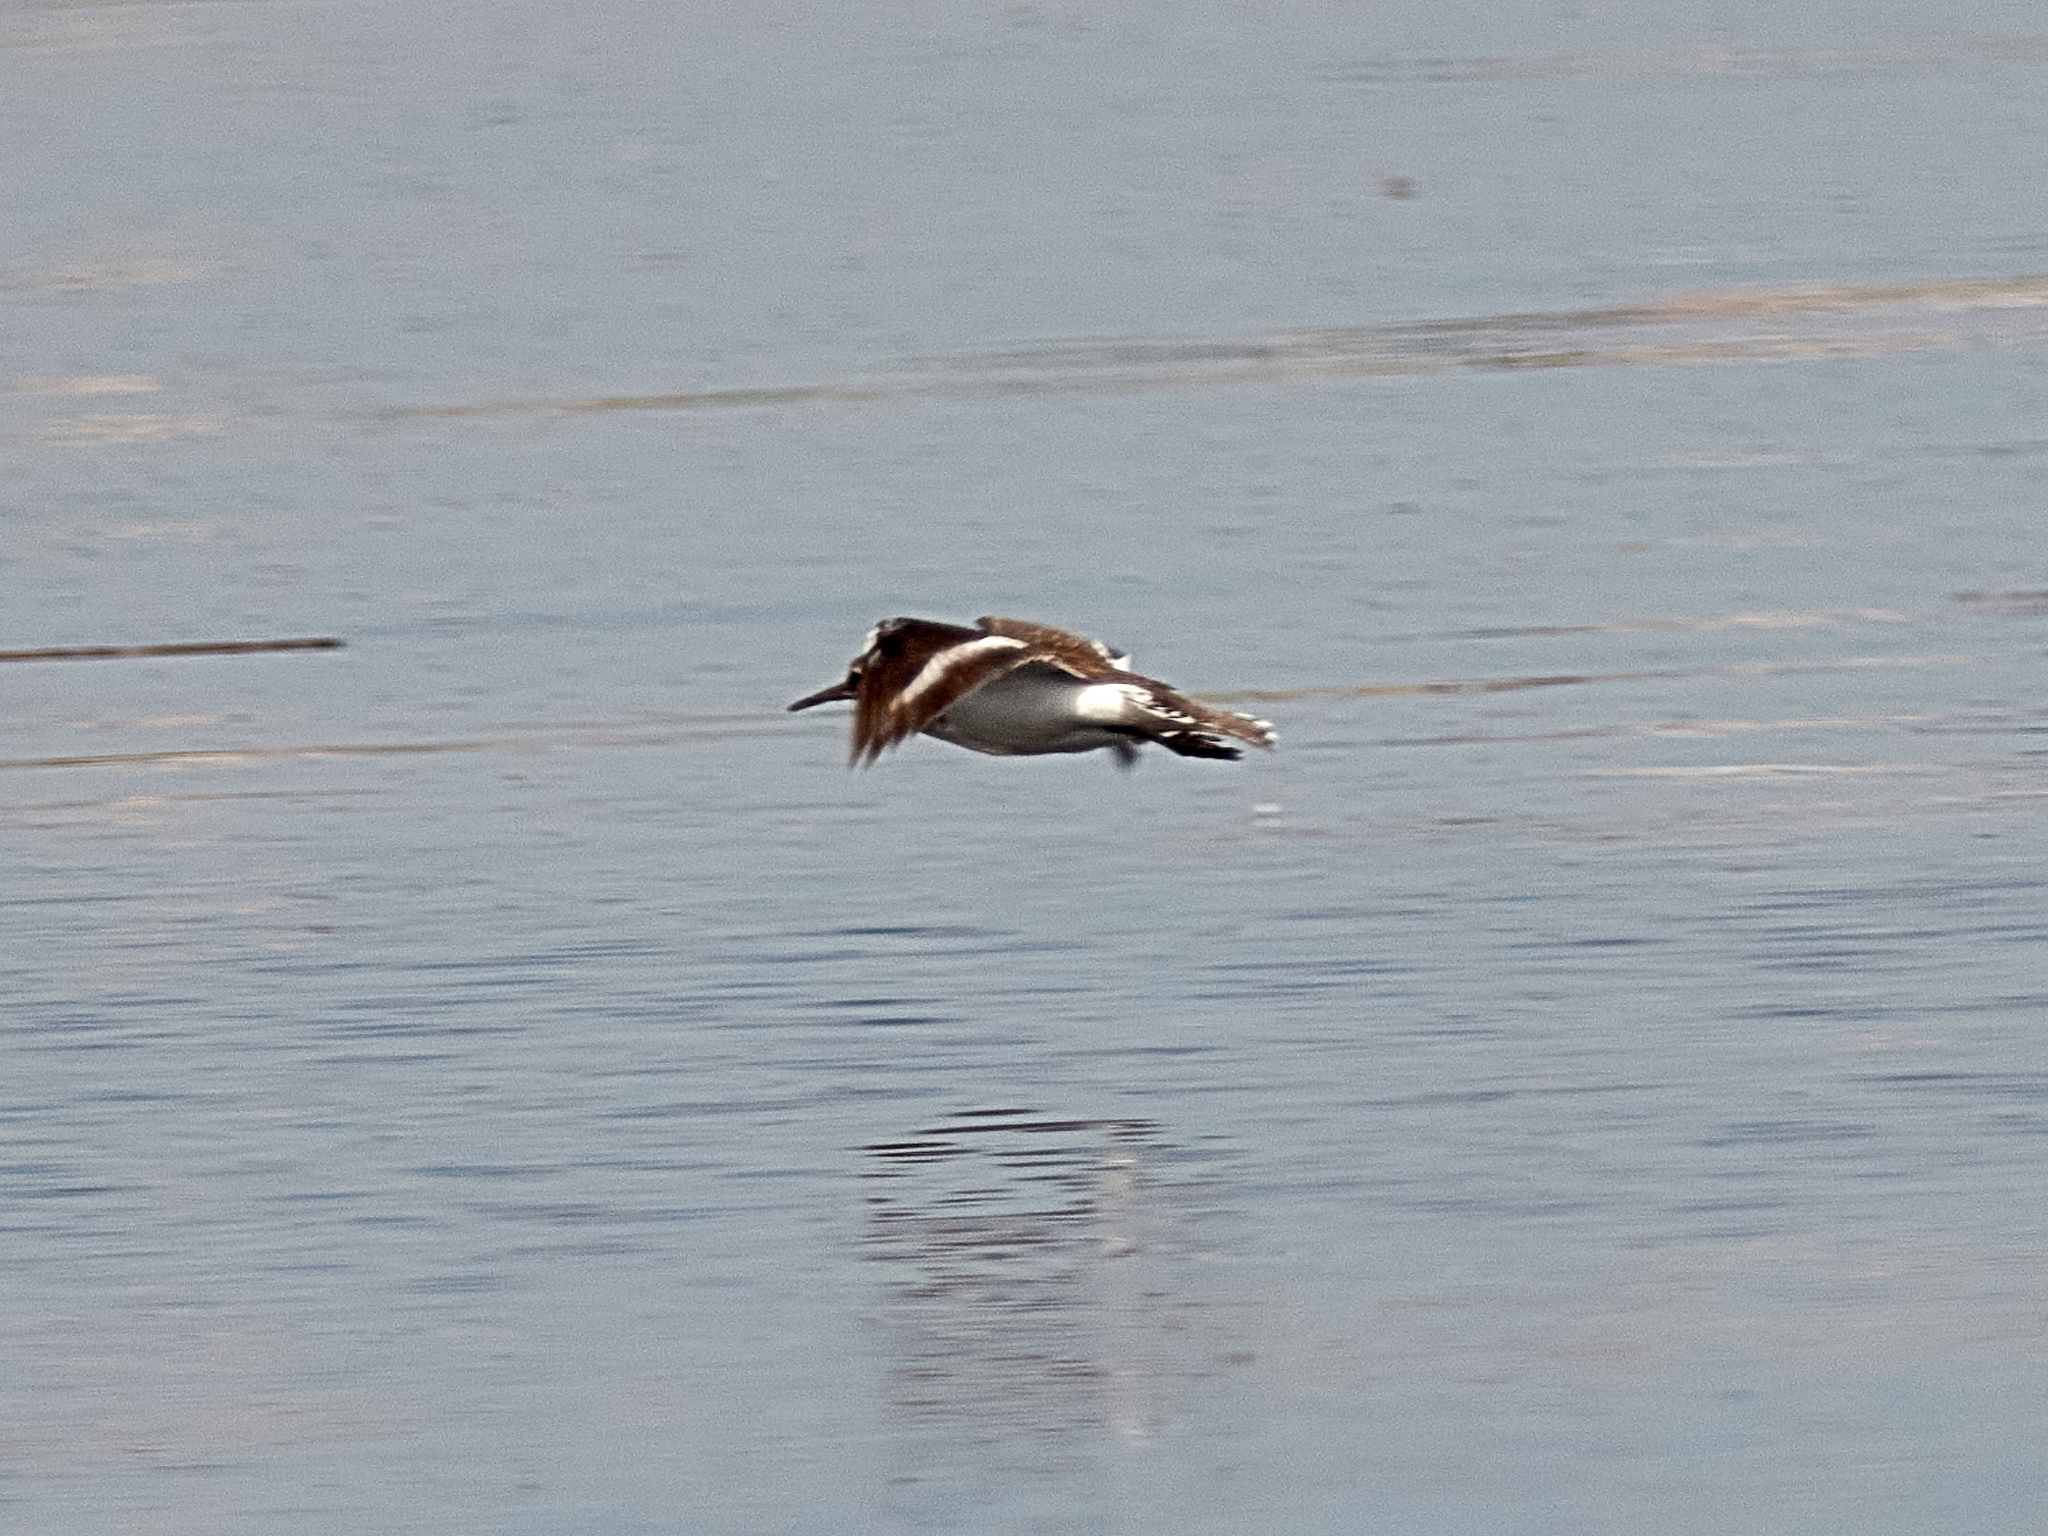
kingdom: Animalia
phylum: Chordata
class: Aves
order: Charadriiformes
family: Scolopacidae
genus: Actitis
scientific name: Actitis hypoleucos
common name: Common sandpiper
